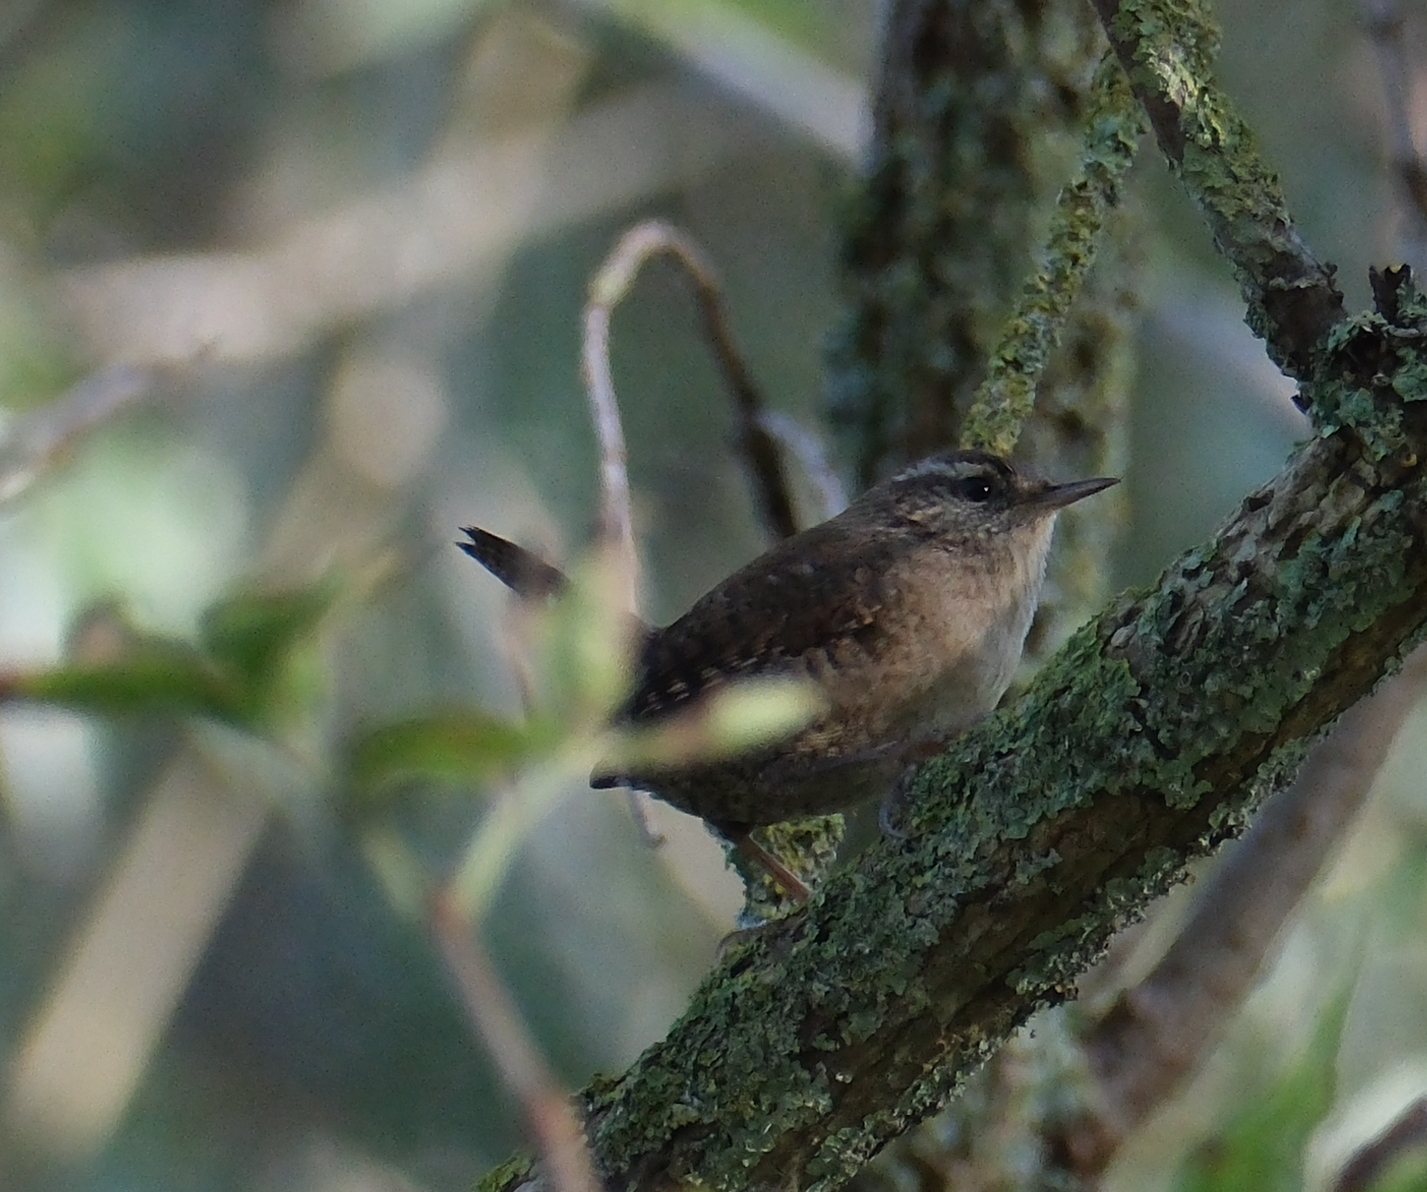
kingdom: Animalia
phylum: Chordata
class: Aves
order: Passeriformes
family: Troglodytidae
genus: Troglodytes
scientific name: Troglodytes troglodytes
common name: Eurasian wren
